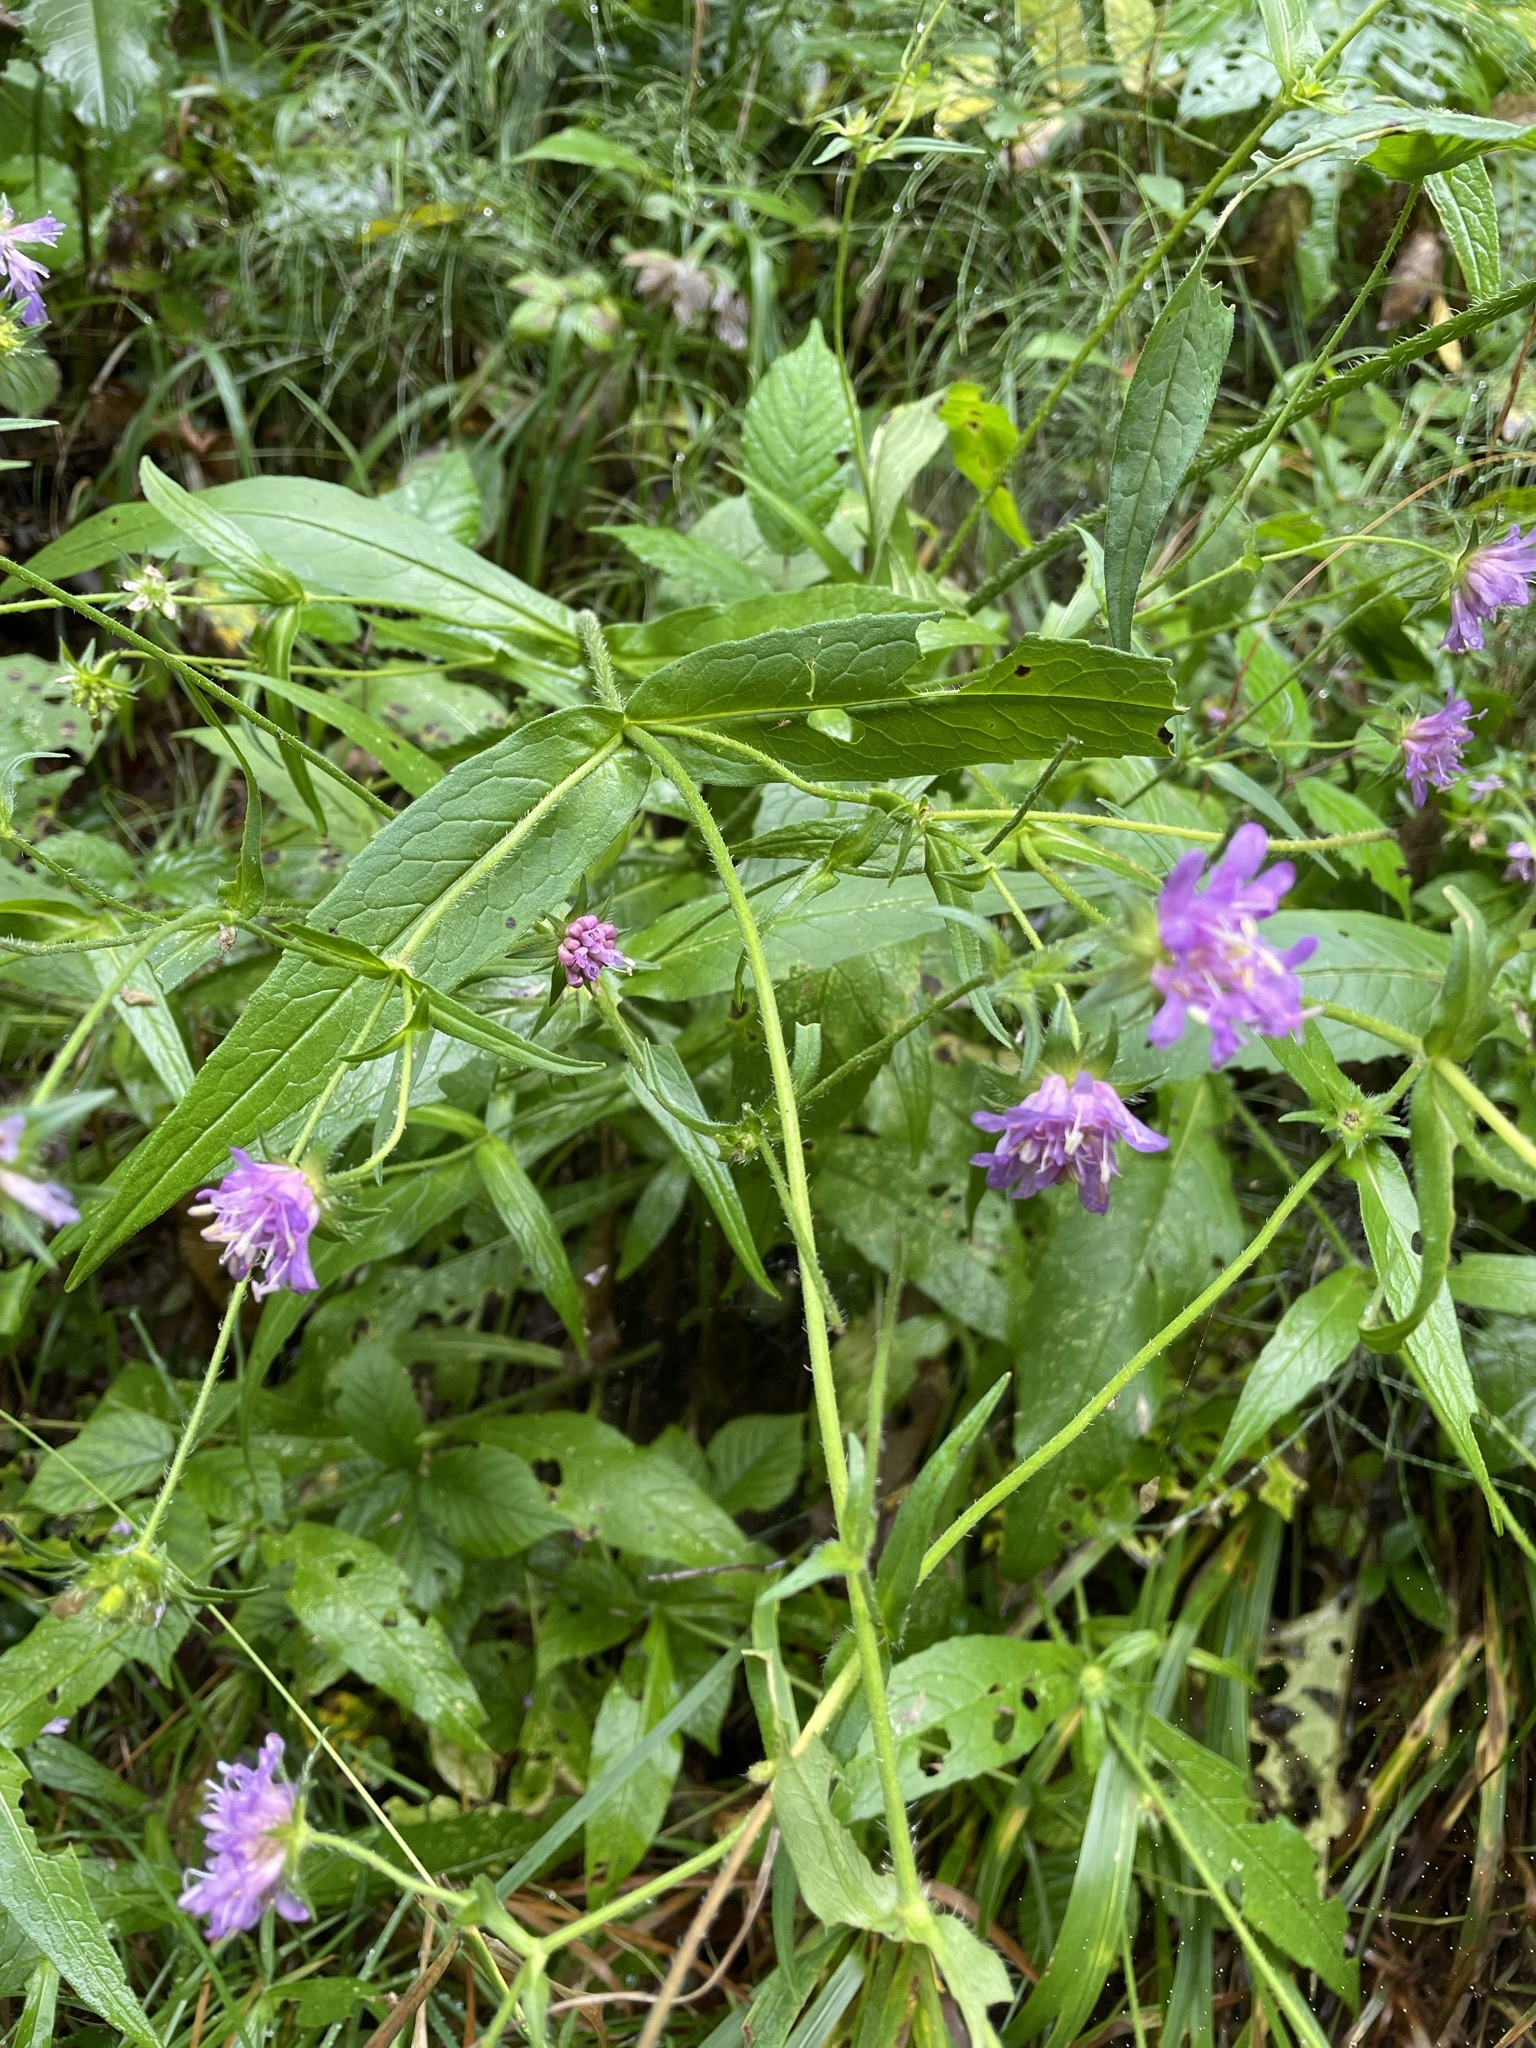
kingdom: Plantae
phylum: Tracheophyta
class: Magnoliopsida
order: Dipsacales
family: Caprifoliaceae
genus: Knautia
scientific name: Knautia dipsacifolia
